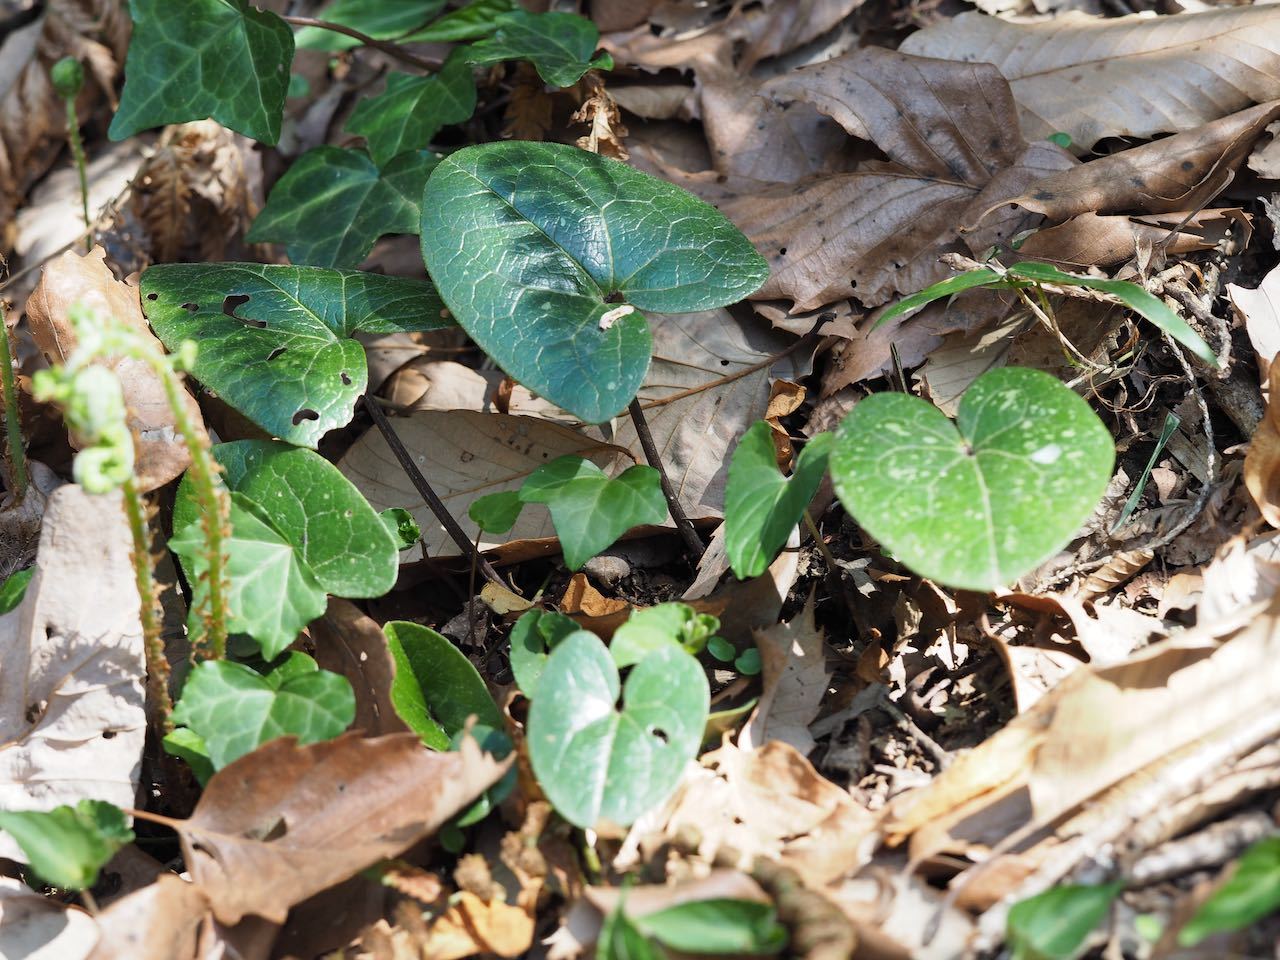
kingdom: Plantae
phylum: Tracheophyta
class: Magnoliopsida
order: Piperales
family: Aristolochiaceae
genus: Asarum
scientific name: Asarum tamaense
